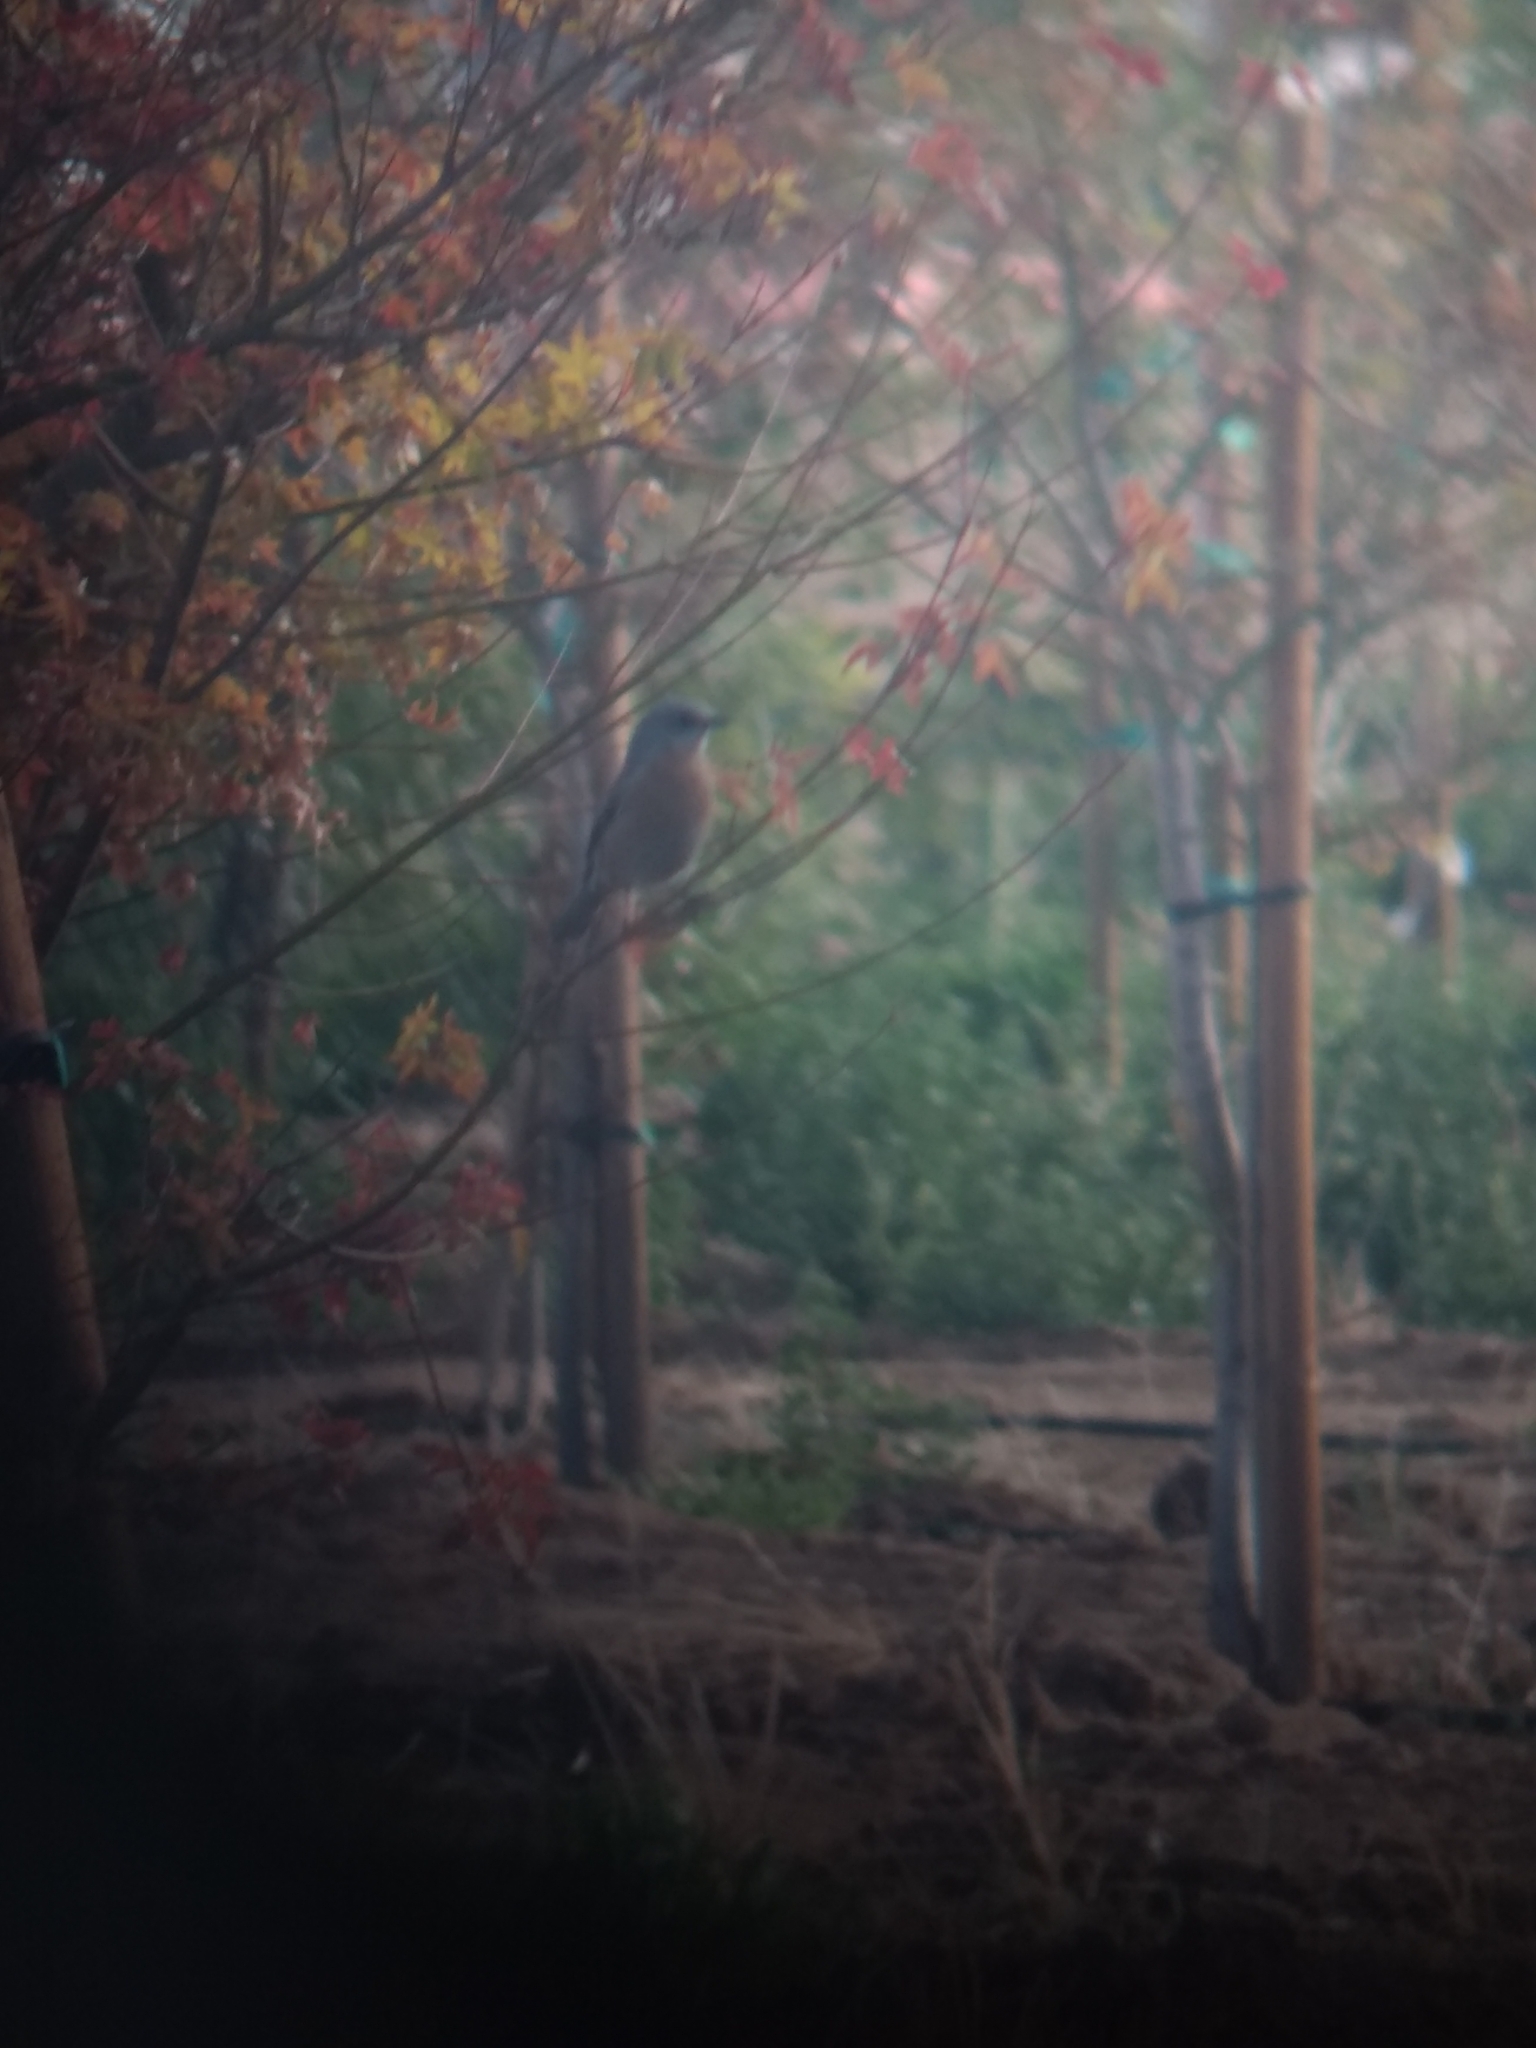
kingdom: Animalia
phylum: Chordata
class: Aves
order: Passeriformes
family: Turdidae
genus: Sialia
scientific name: Sialia mexicana
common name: Western bluebird
